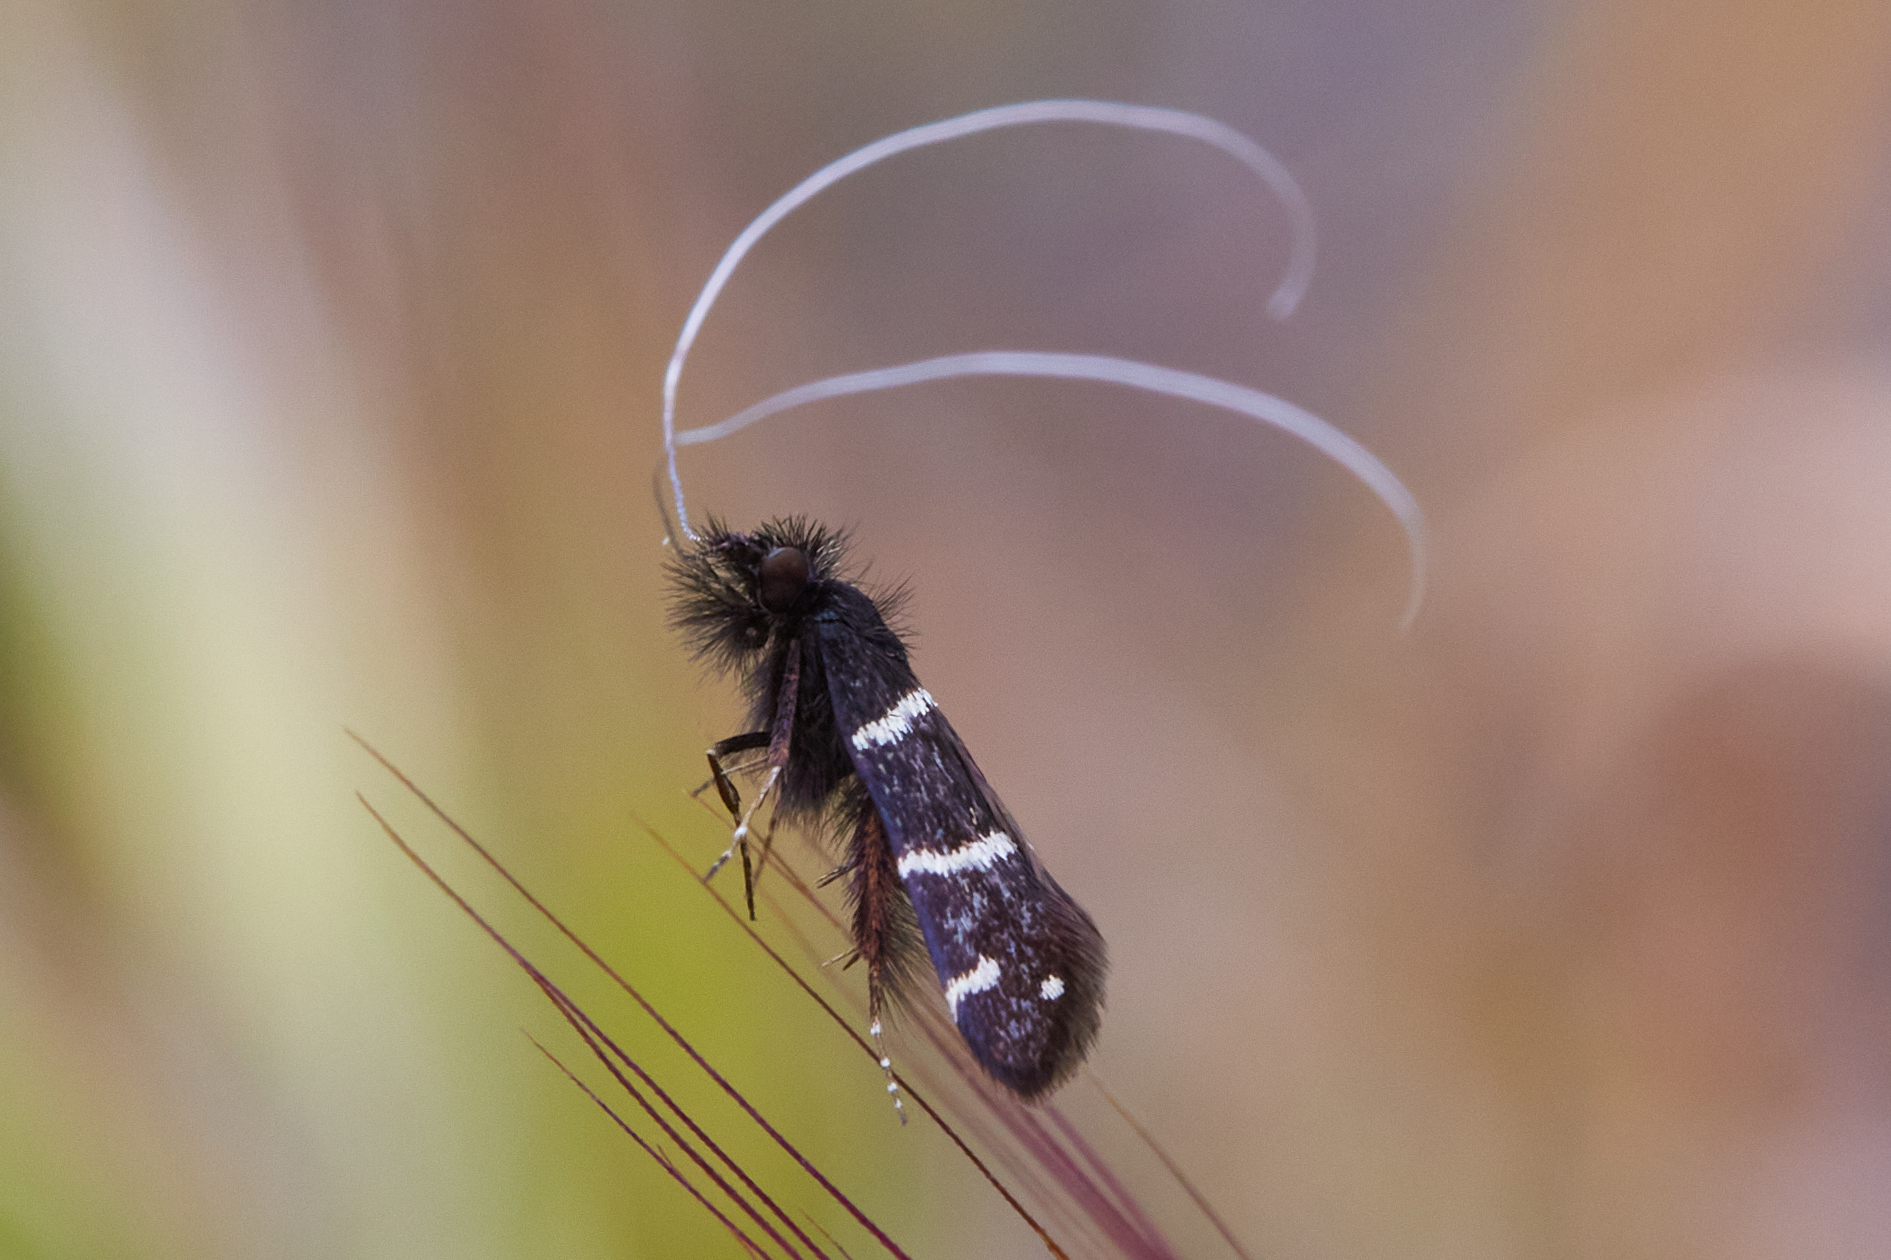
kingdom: Animalia
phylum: Arthropoda
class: Insecta
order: Lepidoptera
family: Adelidae
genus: Adela
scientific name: Adela trigrapha
